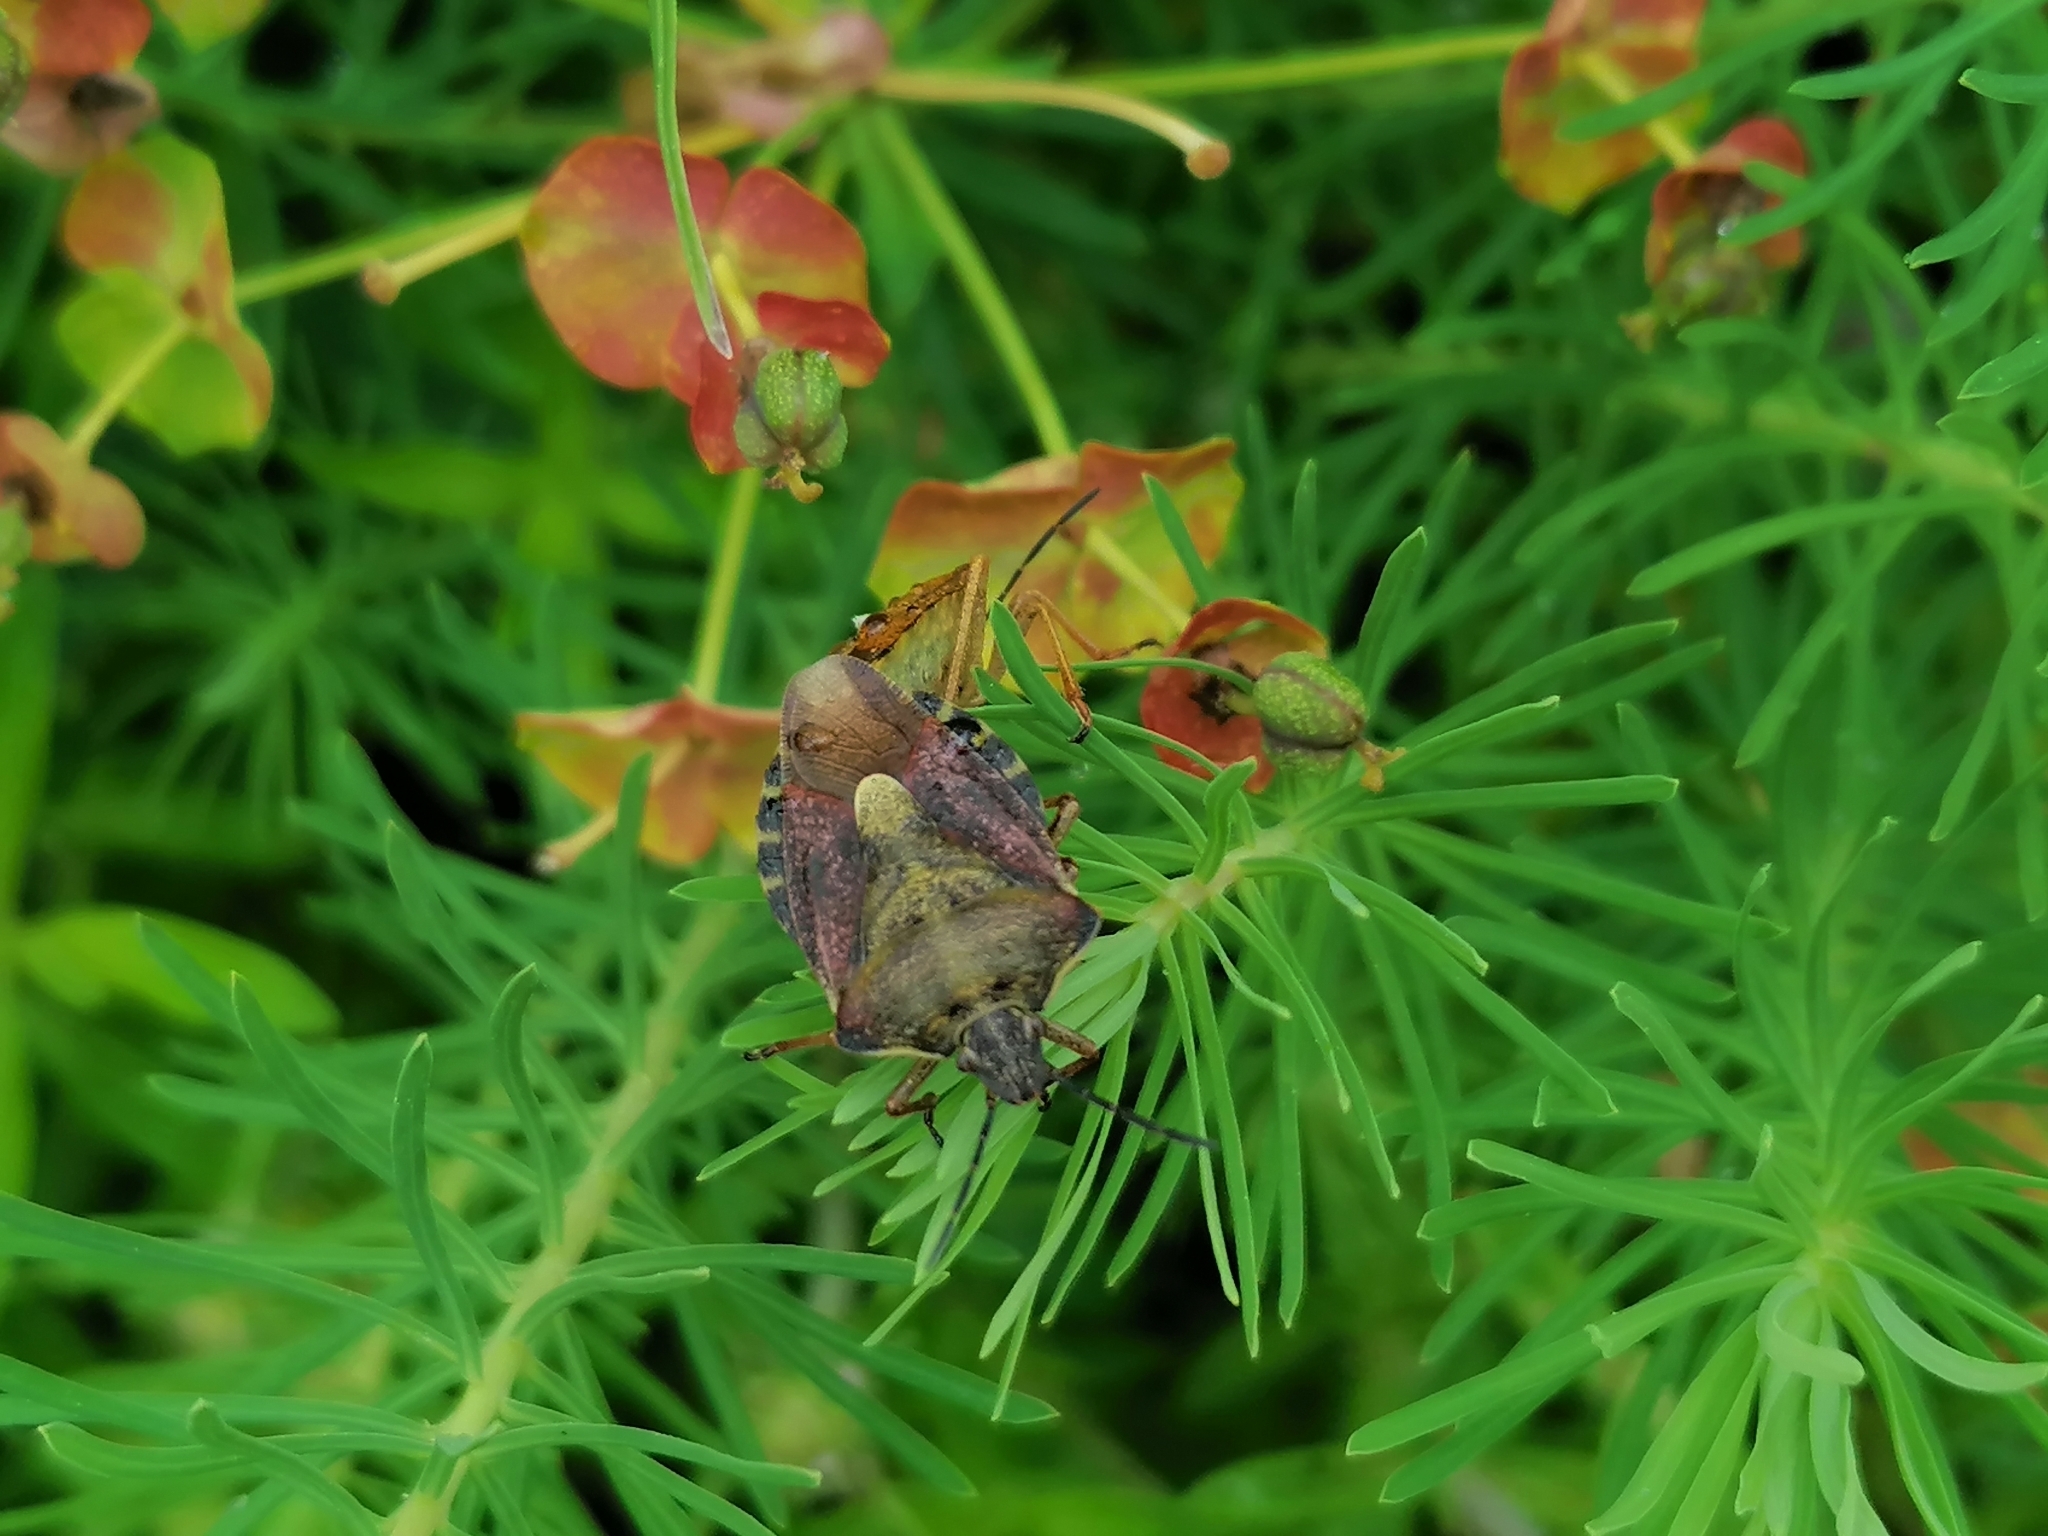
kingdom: Animalia
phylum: Arthropoda
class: Insecta
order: Hemiptera
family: Pentatomidae
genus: Carpocoris
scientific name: Carpocoris purpureipennis
